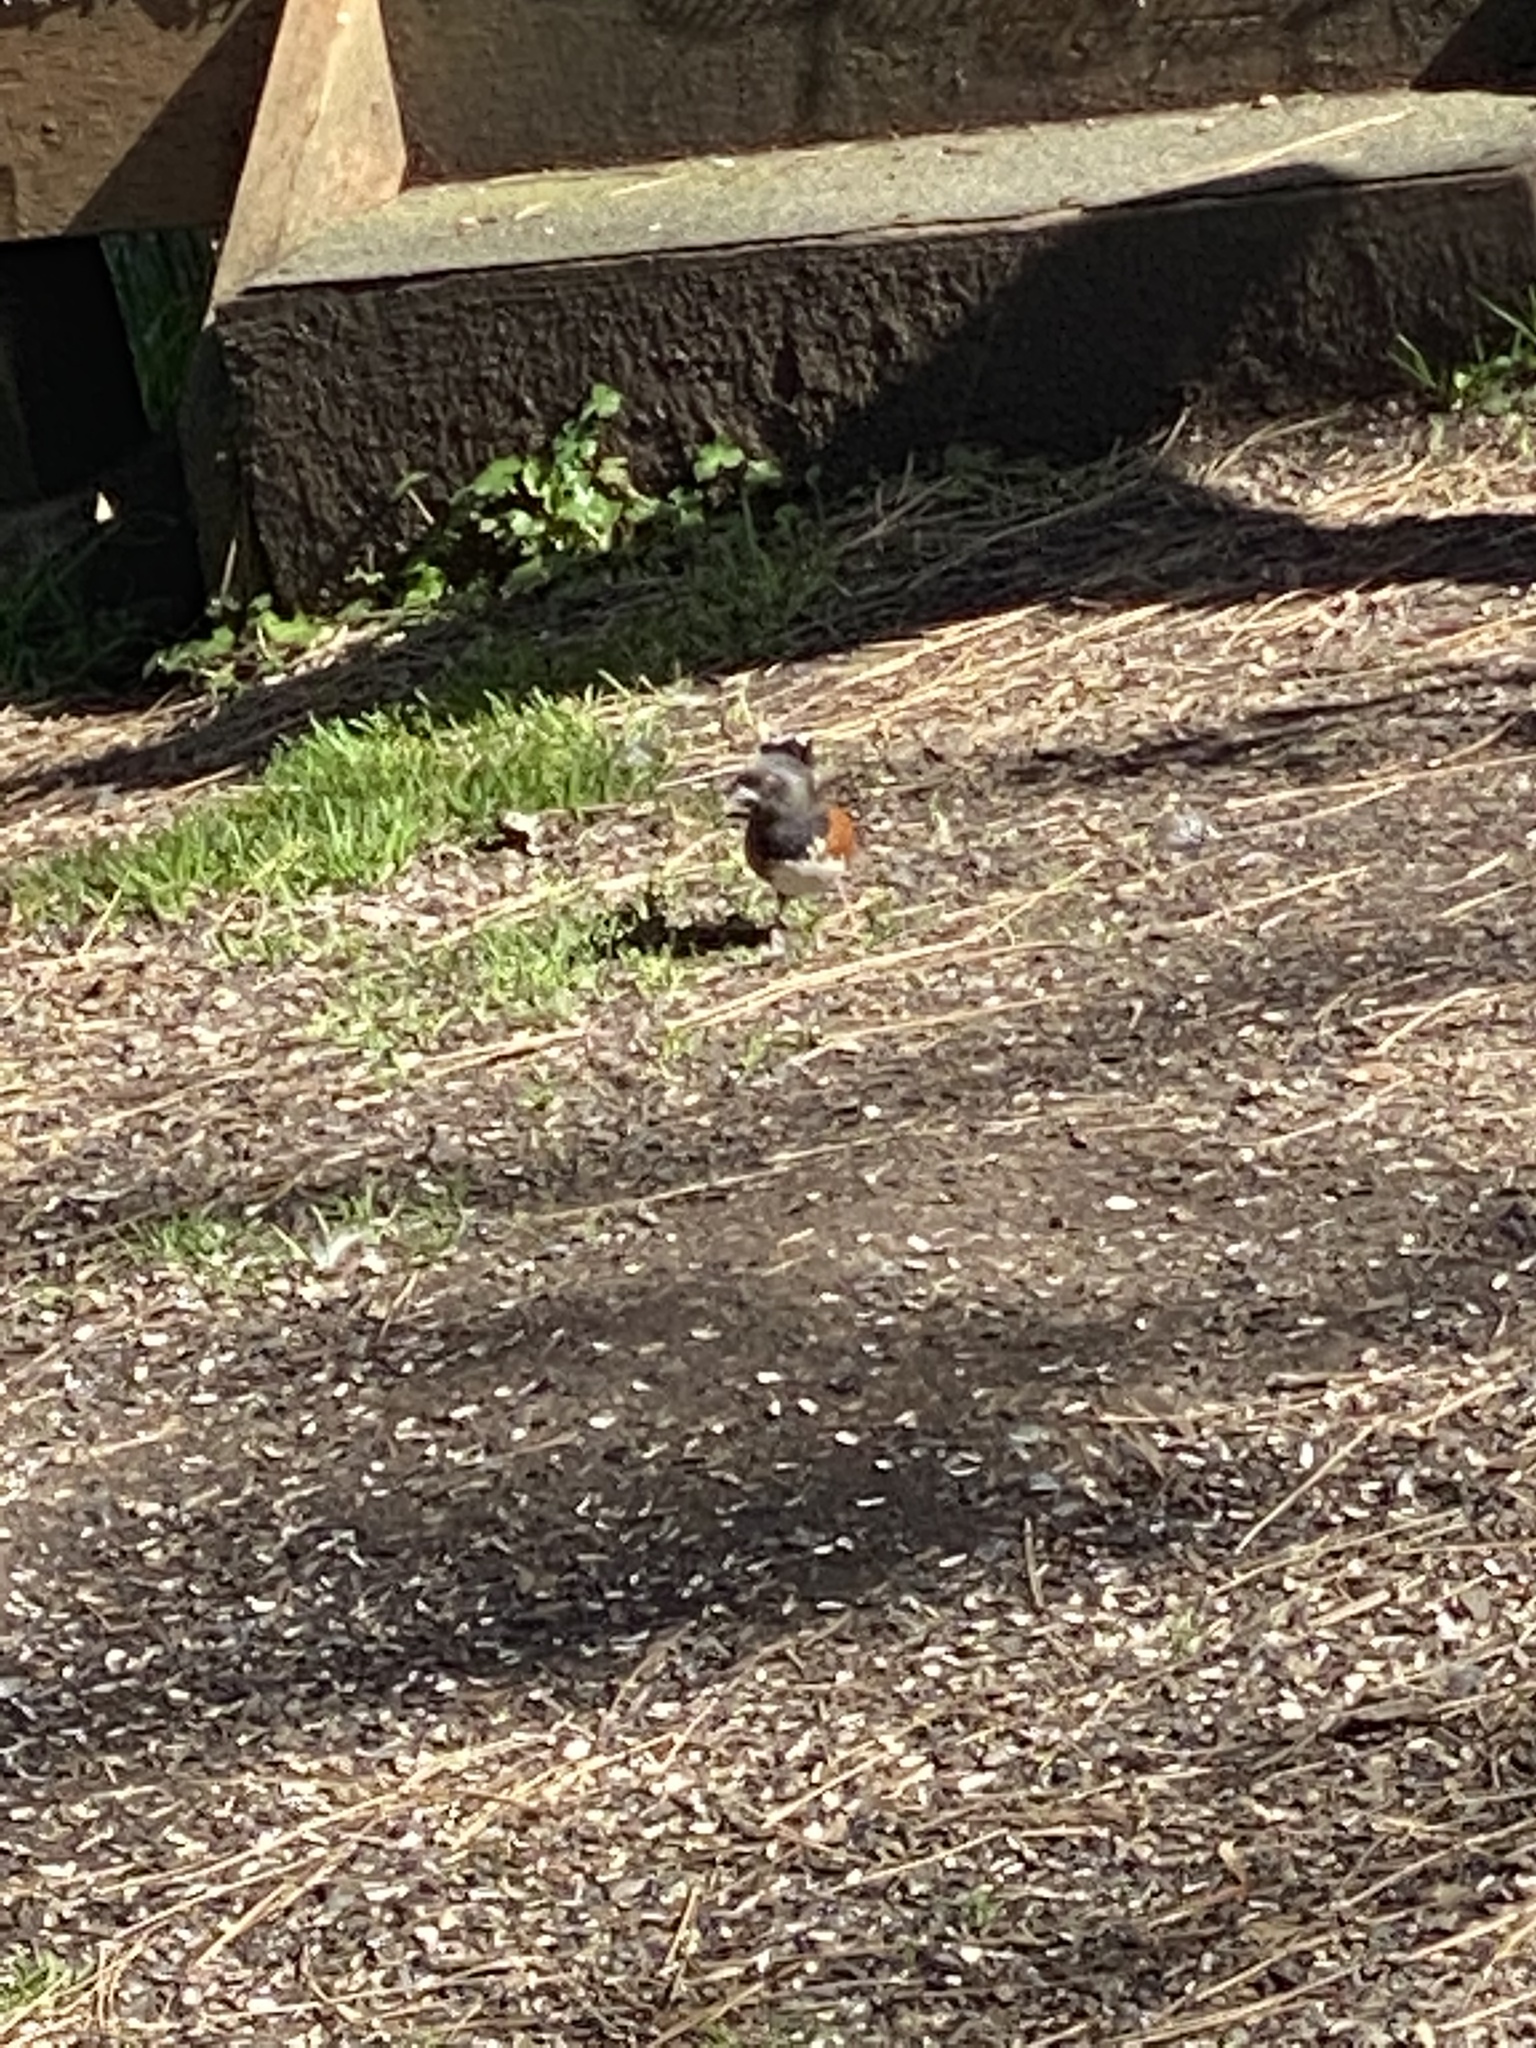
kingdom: Animalia
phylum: Chordata
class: Aves
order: Passeriformes
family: Passerellidae
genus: Pipilo
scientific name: Pipilo maculatus
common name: Spotted towhee
